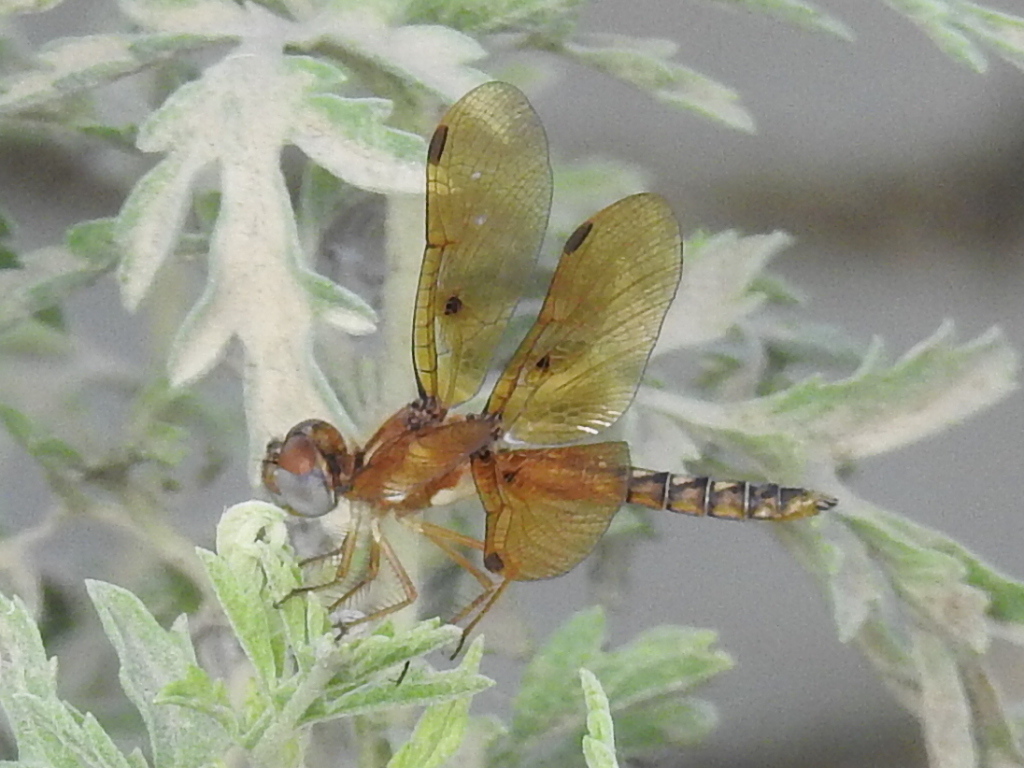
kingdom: Animalia
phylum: Arthropoda
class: Insecta
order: Odonata
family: Libellulidae
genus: Perithemis
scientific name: Perithemis tenera
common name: Eastern amberwing
